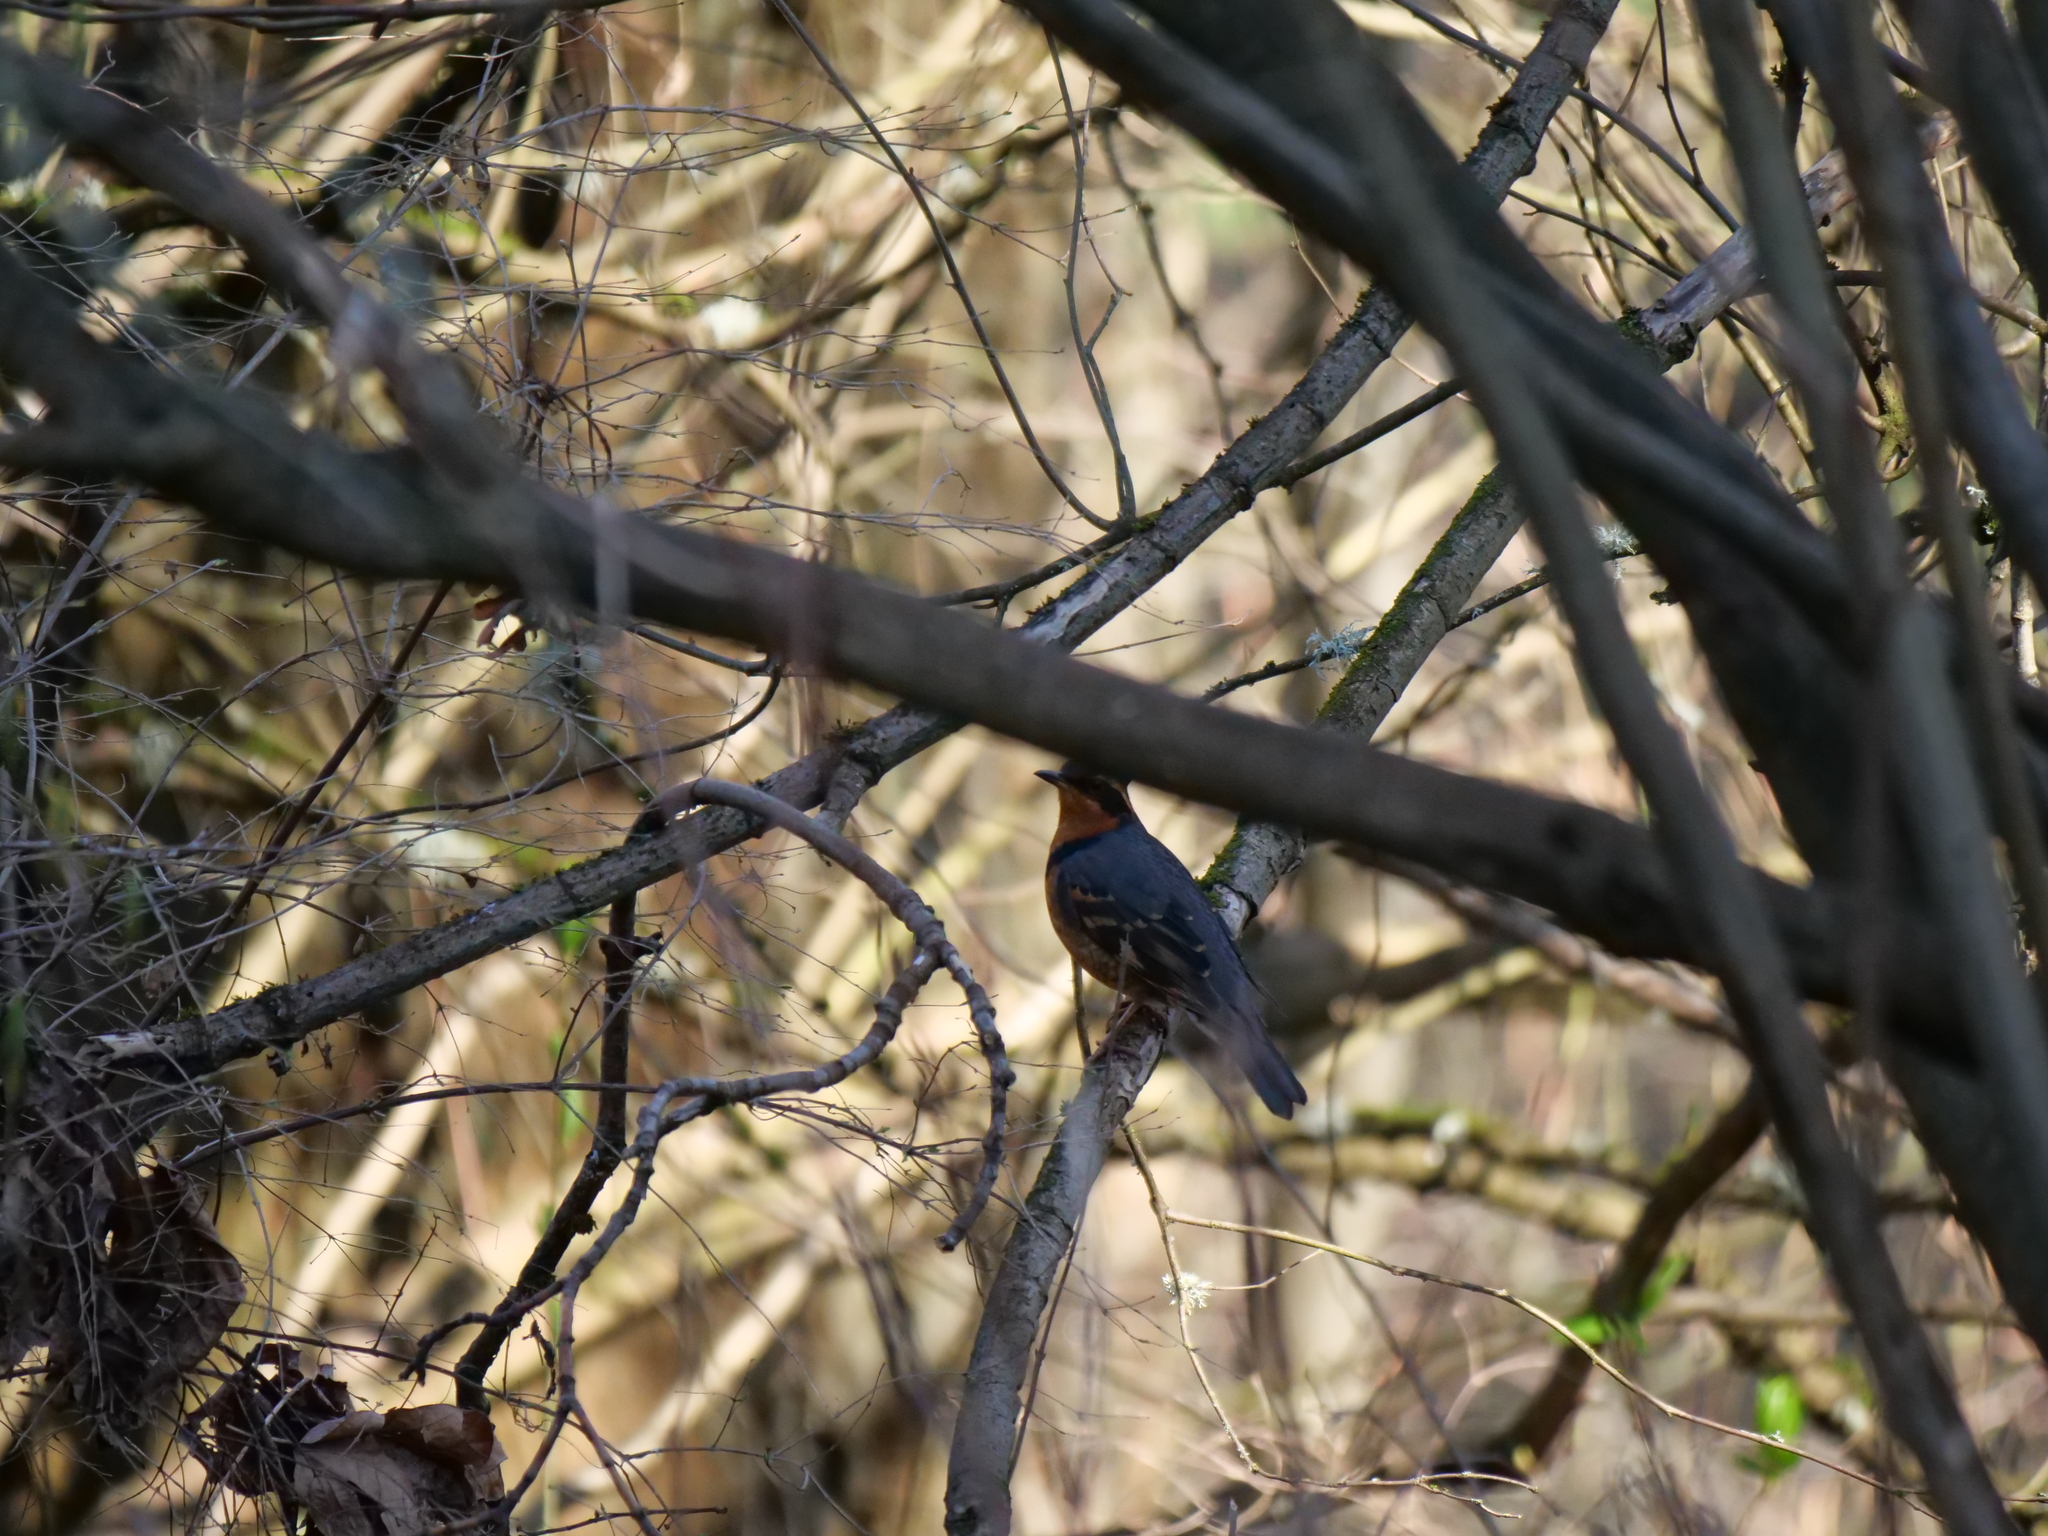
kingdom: Animalia
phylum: Chordata
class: Aves
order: Passeriformes
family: Turdidae
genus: Ixoreus
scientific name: Ixoreus naevius
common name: Varied thrush
